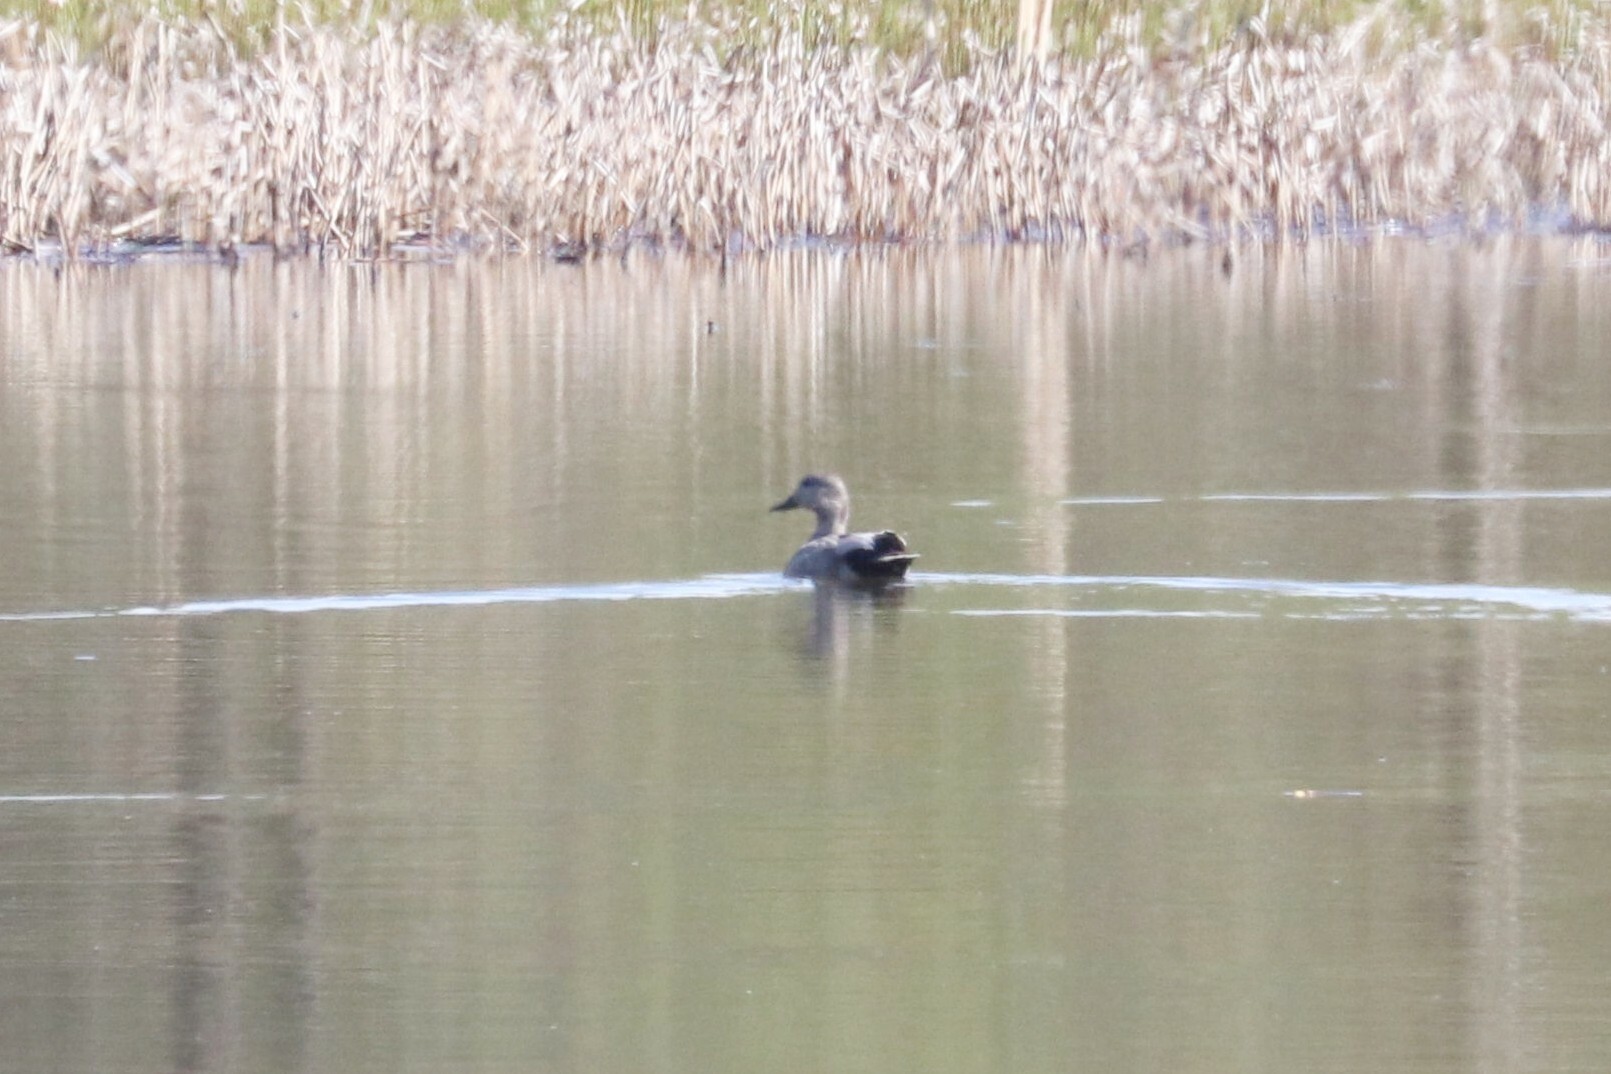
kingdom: Animalia
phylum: Chordata
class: Aves
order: Anseriformes
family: Anatidae
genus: Mareca
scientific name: Mareca strepera
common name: Gadwall
